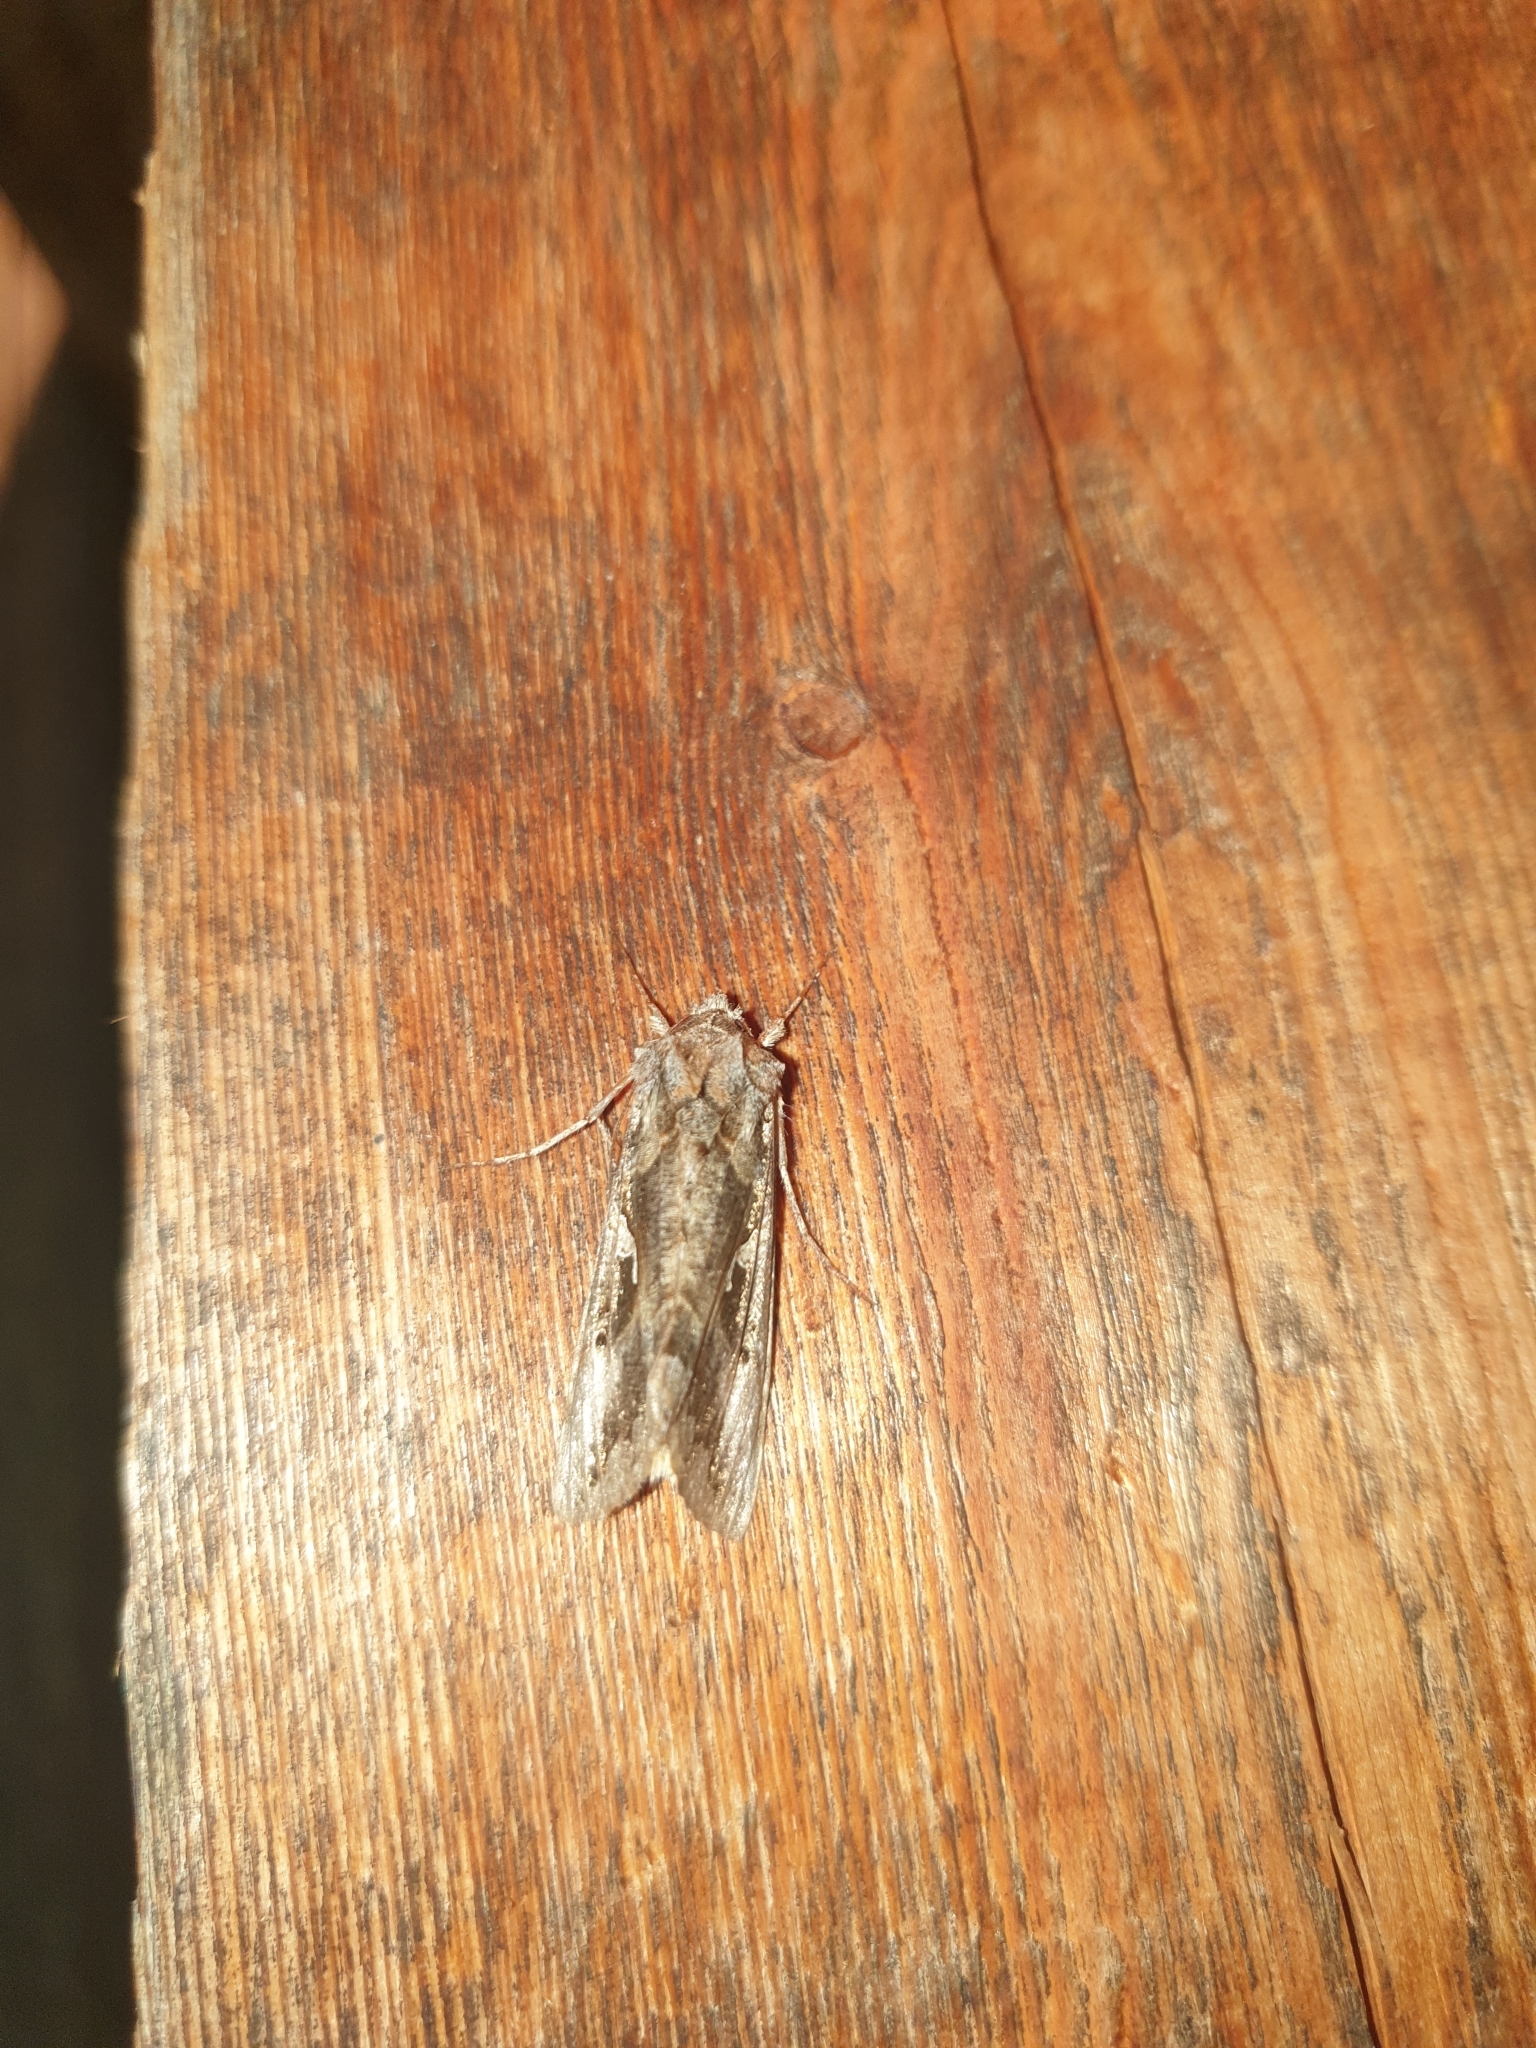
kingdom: Animalia
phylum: Arthropoda
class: Insecta
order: Lepidoptera
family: Noctuidae
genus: Autographa
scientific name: Autographa gamma
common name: Silver y
